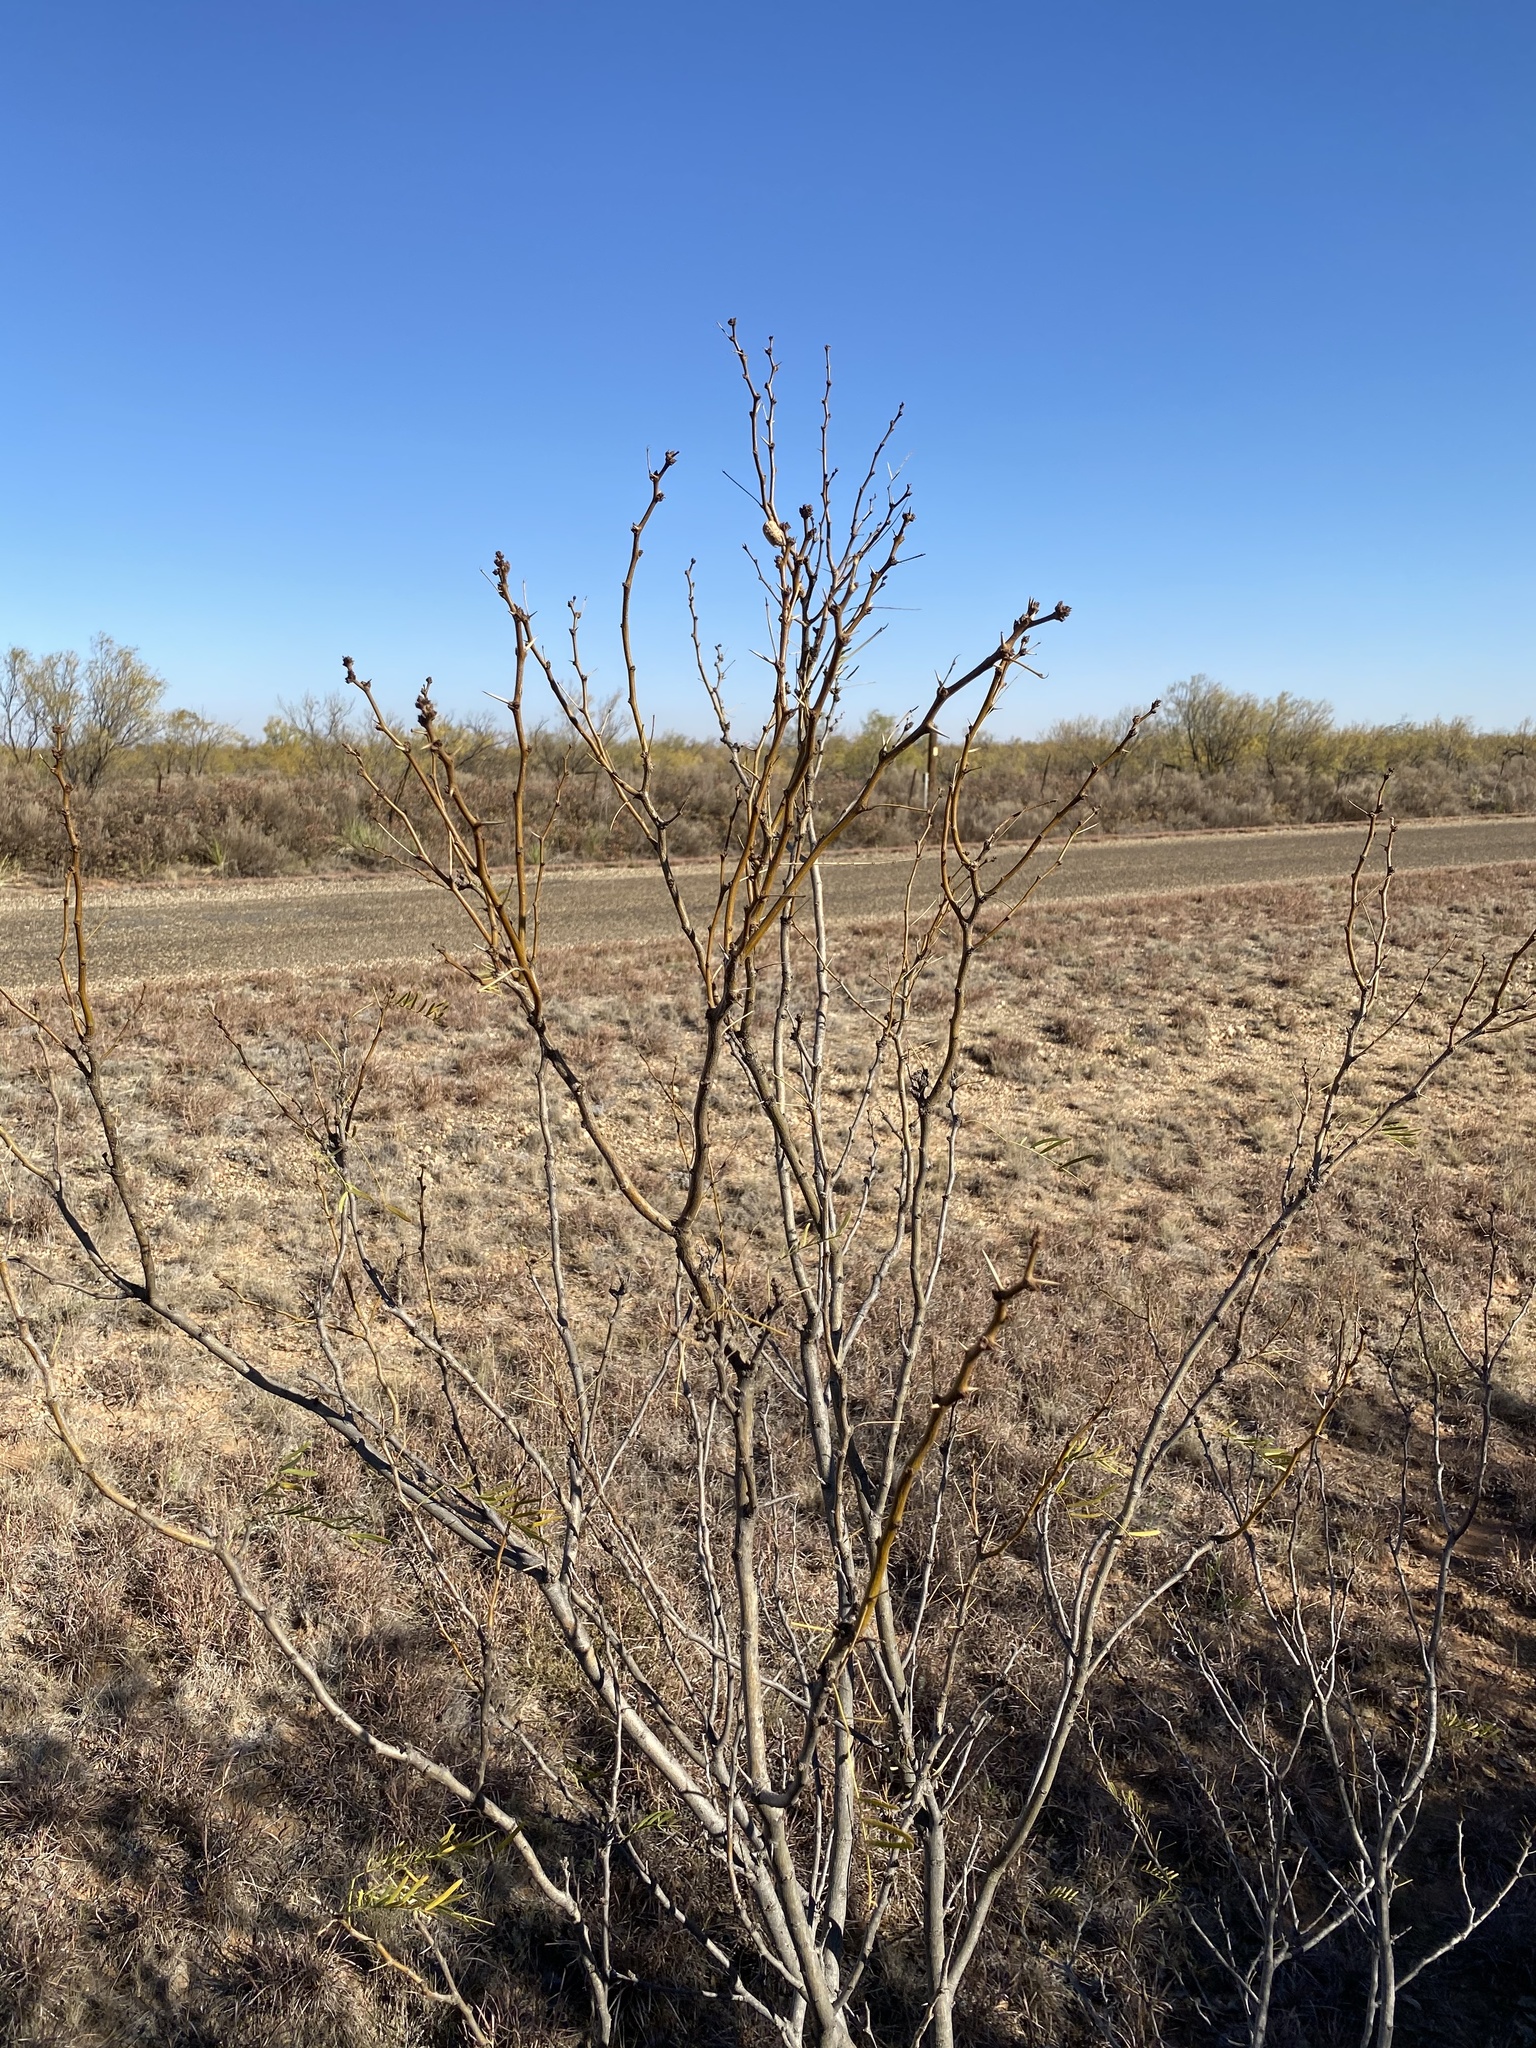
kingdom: Plantae
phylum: Tracheophyta
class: Magnoliopsida
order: Fabales
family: Fabaceae
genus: Prosopis
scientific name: Prosopis glandulosa
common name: Honey mesquite
